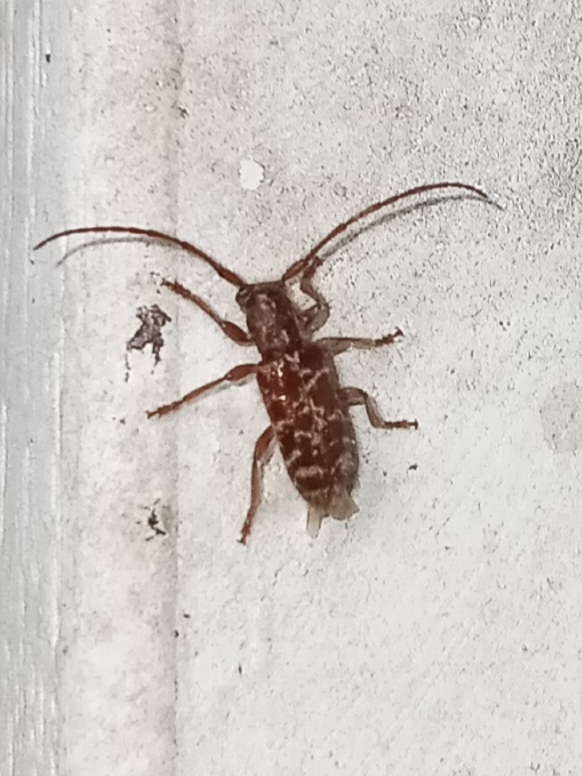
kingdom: Animalia
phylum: Arthropoda
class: Insecta
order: Coleoptera
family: Cerambycidae
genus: Eupogonius
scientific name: Eupogonius tomentosus
